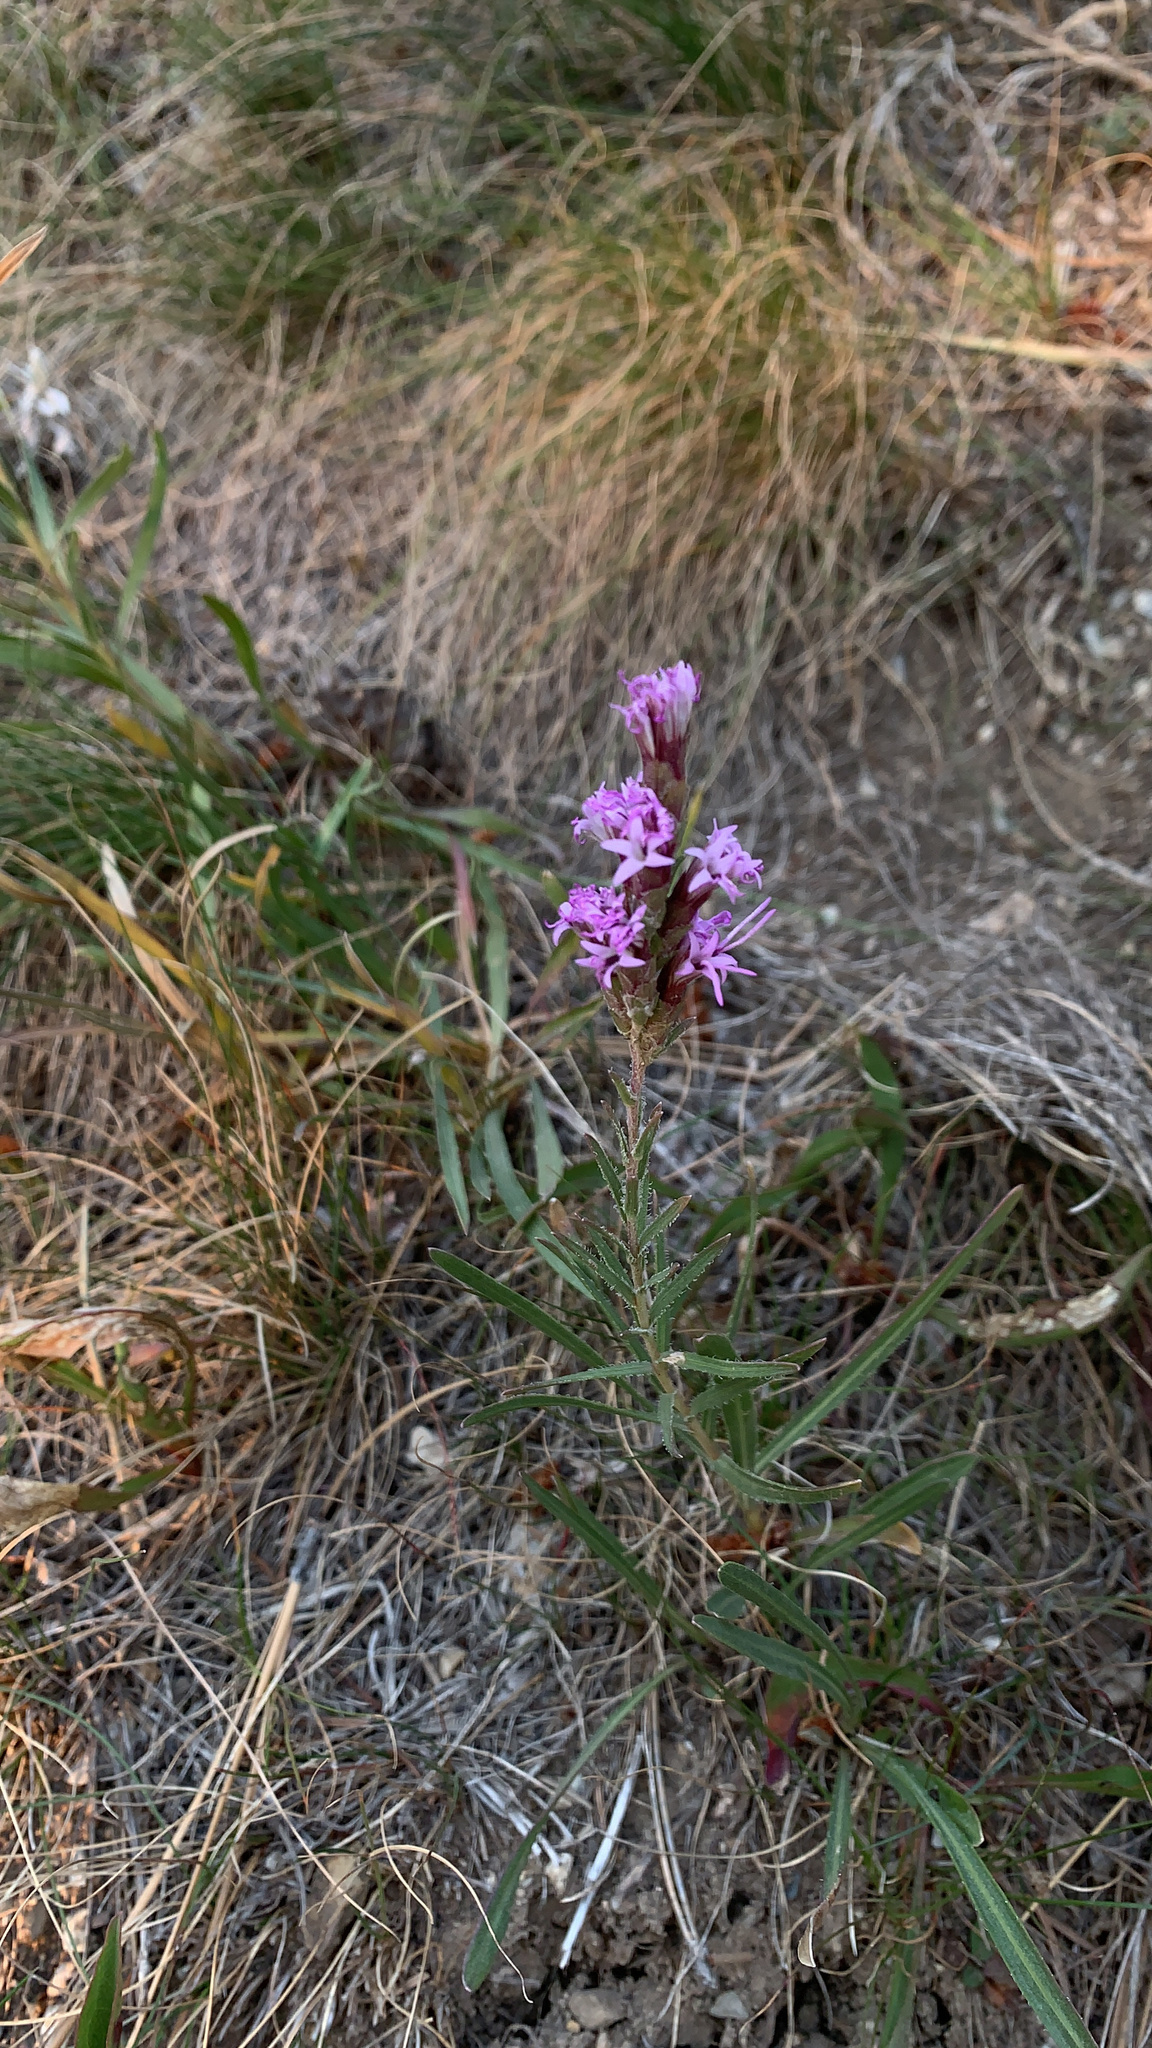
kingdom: Plantae
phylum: Tracheophyta
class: Magnoliopsida
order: Asterales
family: Asteraceae
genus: Liatris
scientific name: Liatris punctata
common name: Dotted gayfeather
